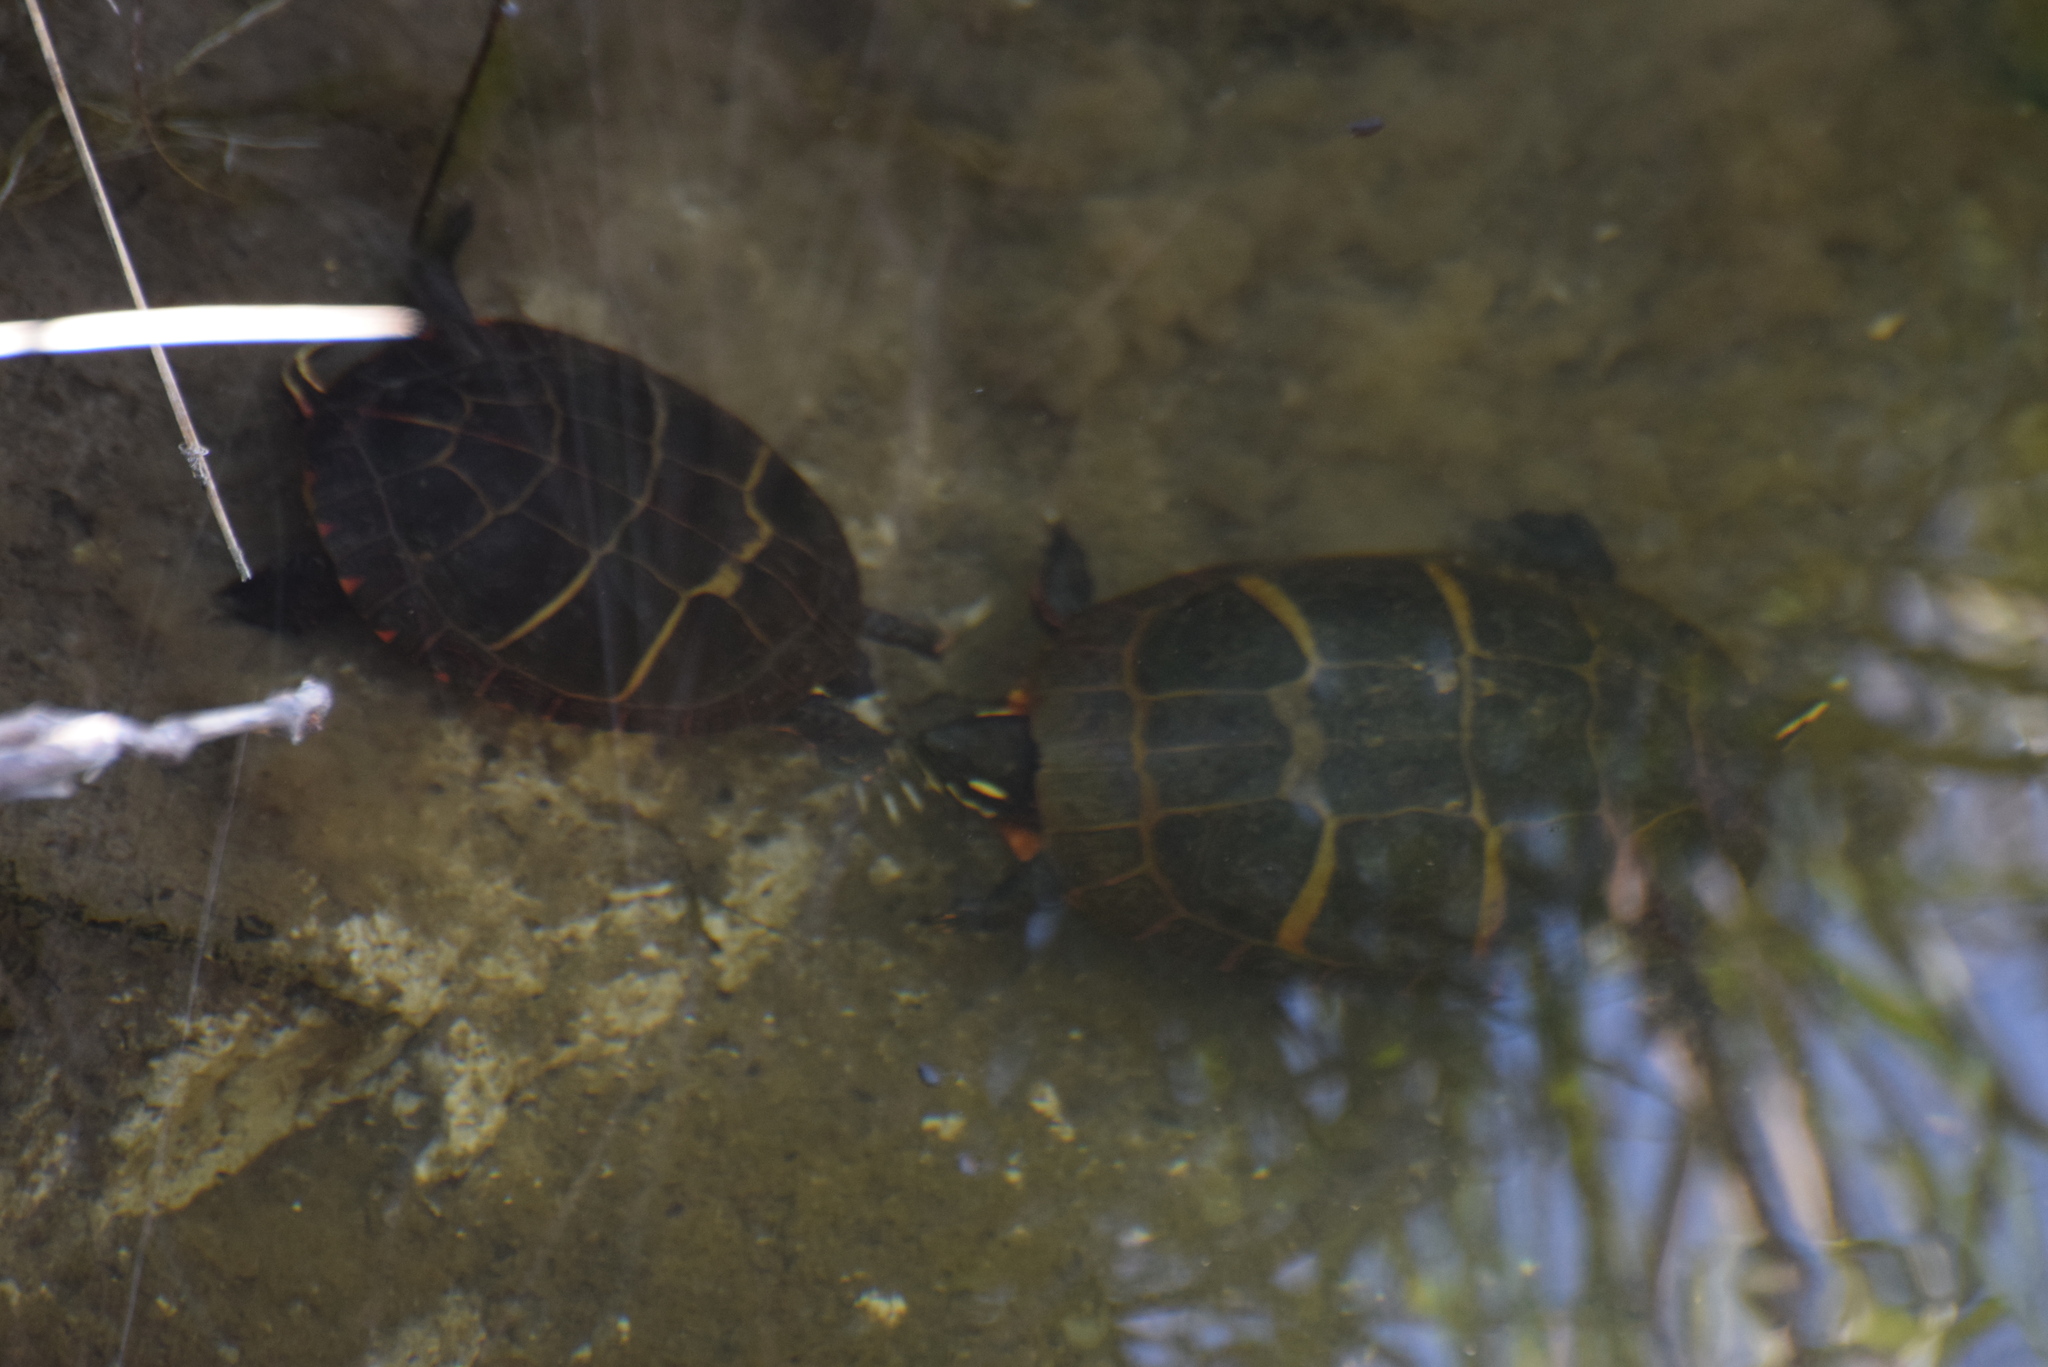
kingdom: Animalia
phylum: Chordata
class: Testudines
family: Emydidae
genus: Chrysemys
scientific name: Chrysemys picta
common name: Painted turtle
